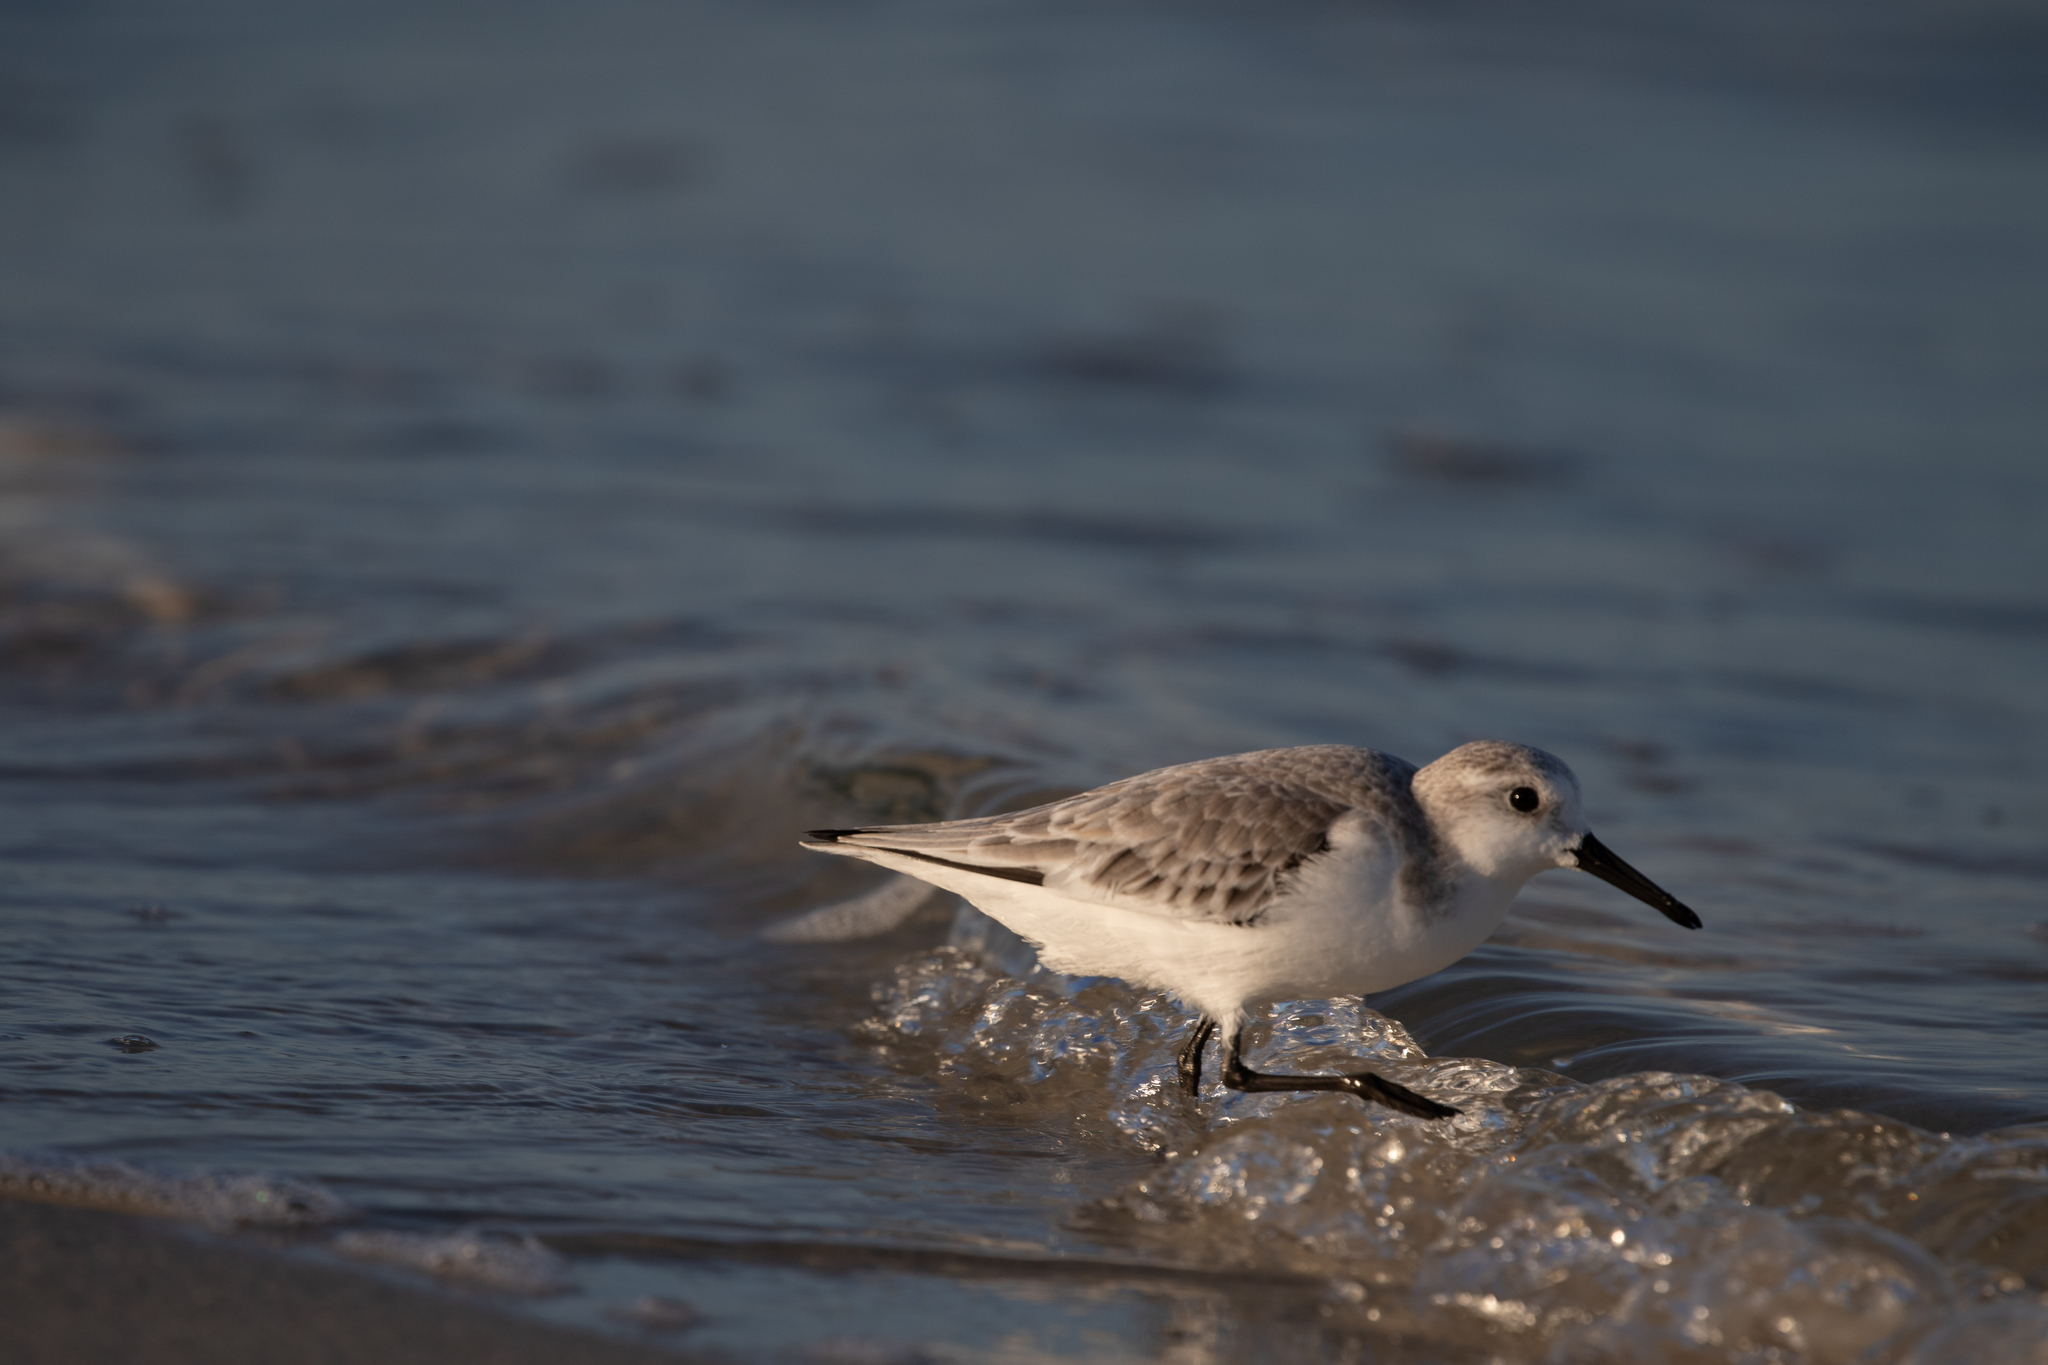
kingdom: Animalia
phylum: Chordata
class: Aves
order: Charadriiformes
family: Scolopacidae
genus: Calidris
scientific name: Calidris alba
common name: Sanderling
